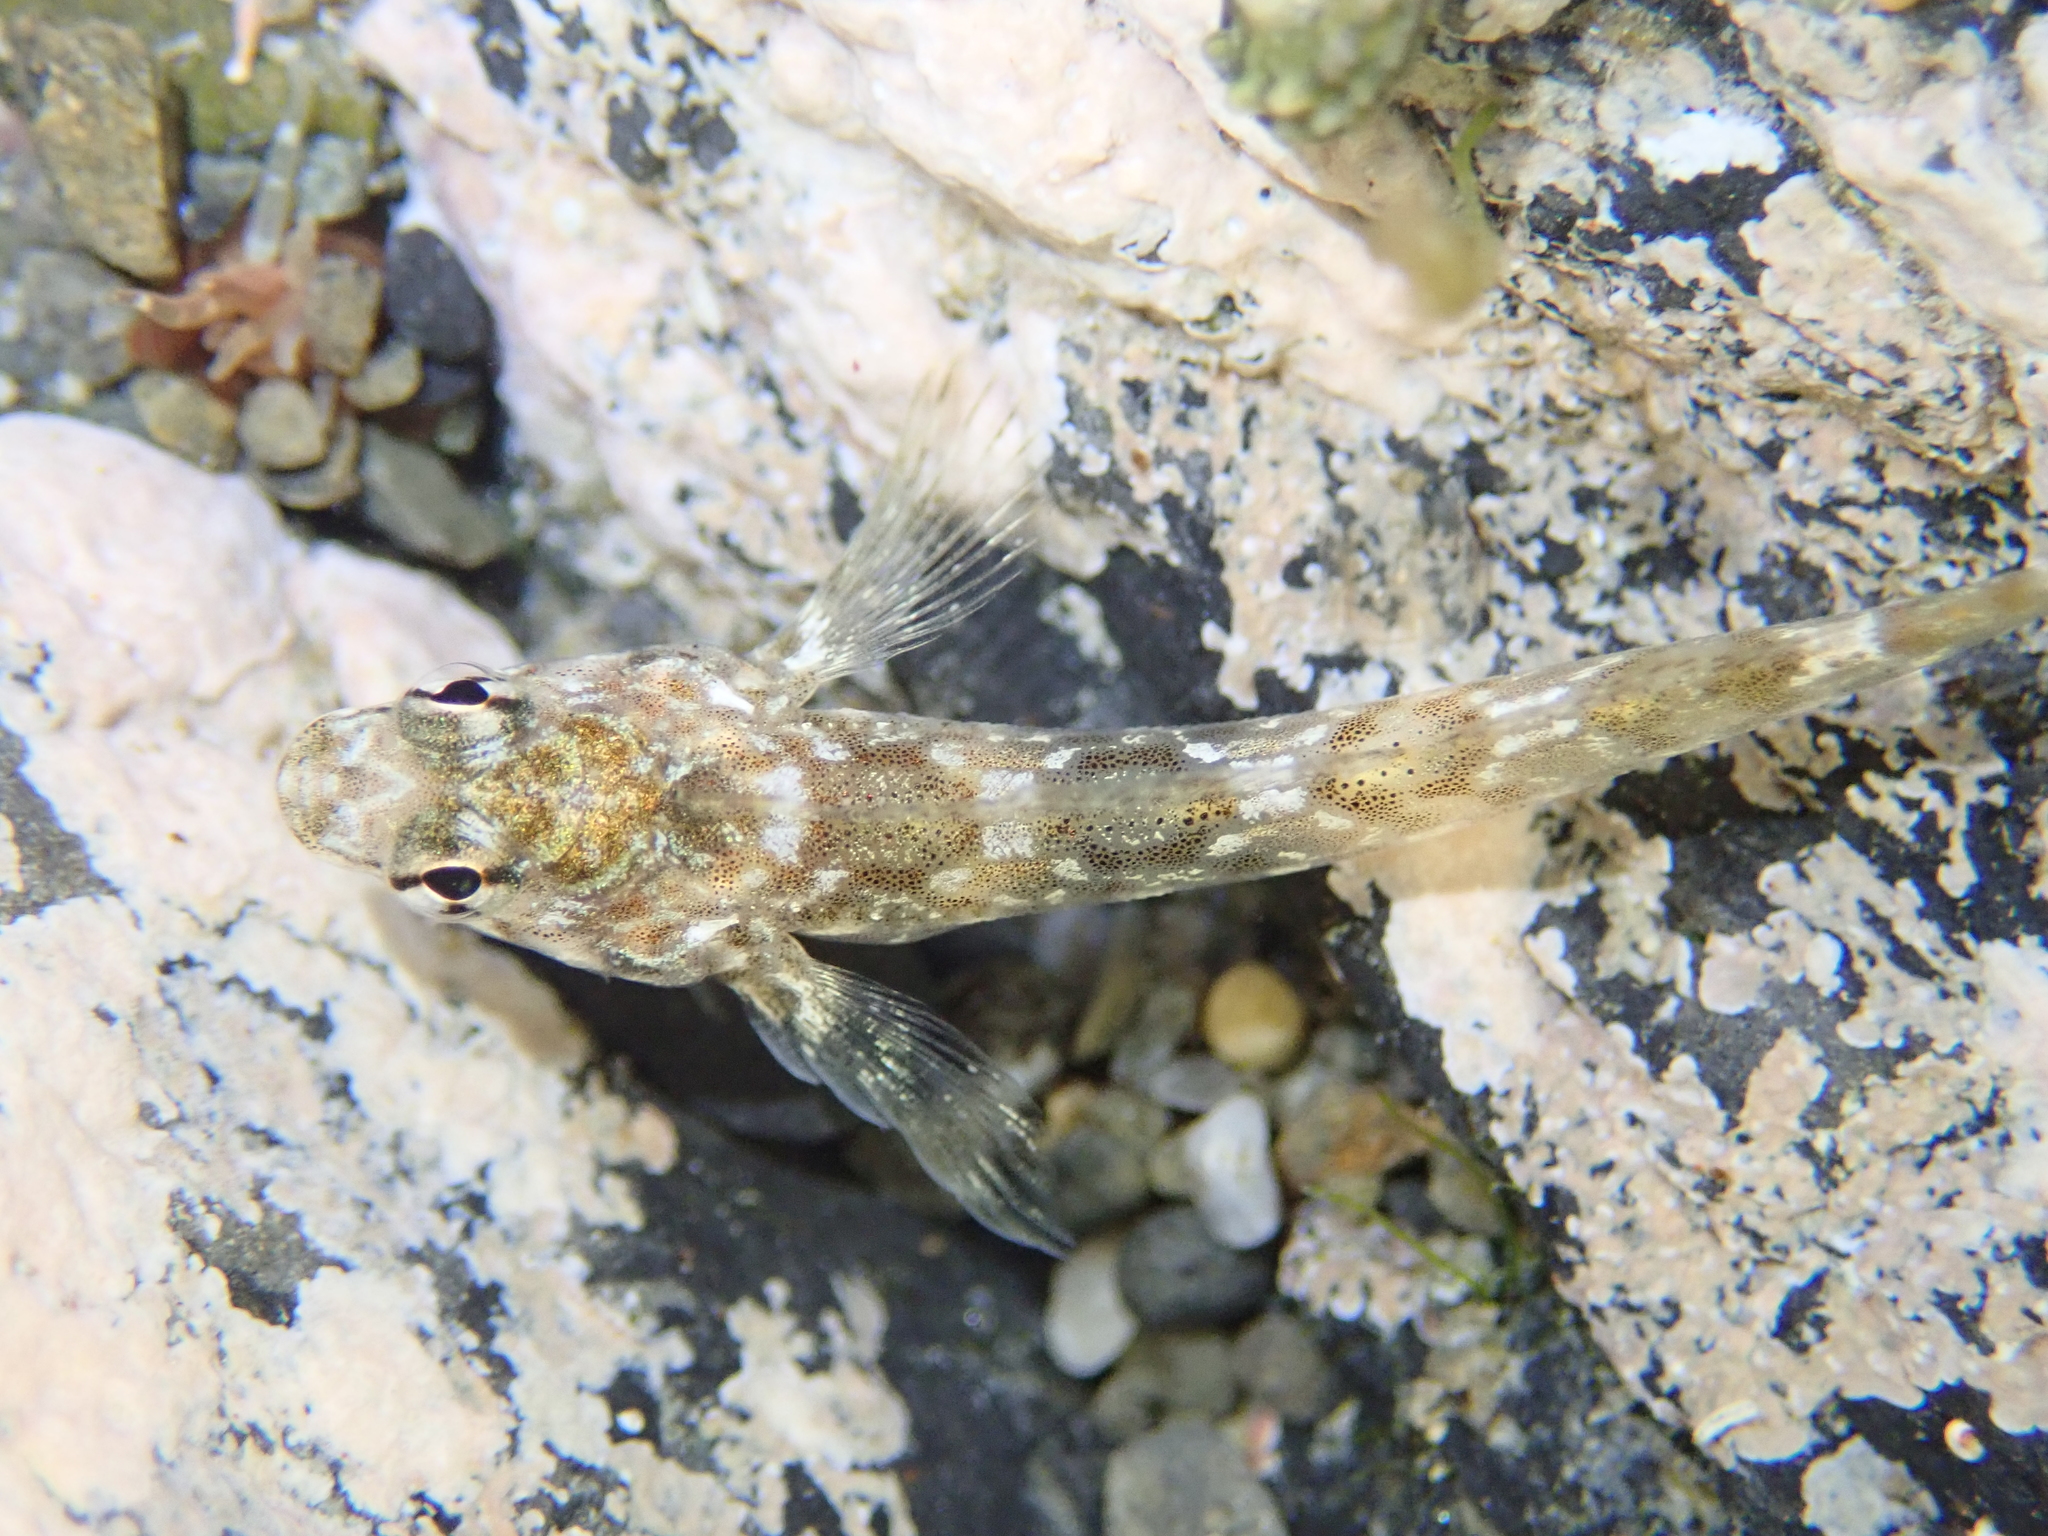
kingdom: Animalia
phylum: Chordata
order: Perciformes
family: Tripterygiidae
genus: Bellapiscis
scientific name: Bellapiscis lesleyae
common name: Mottled twister
